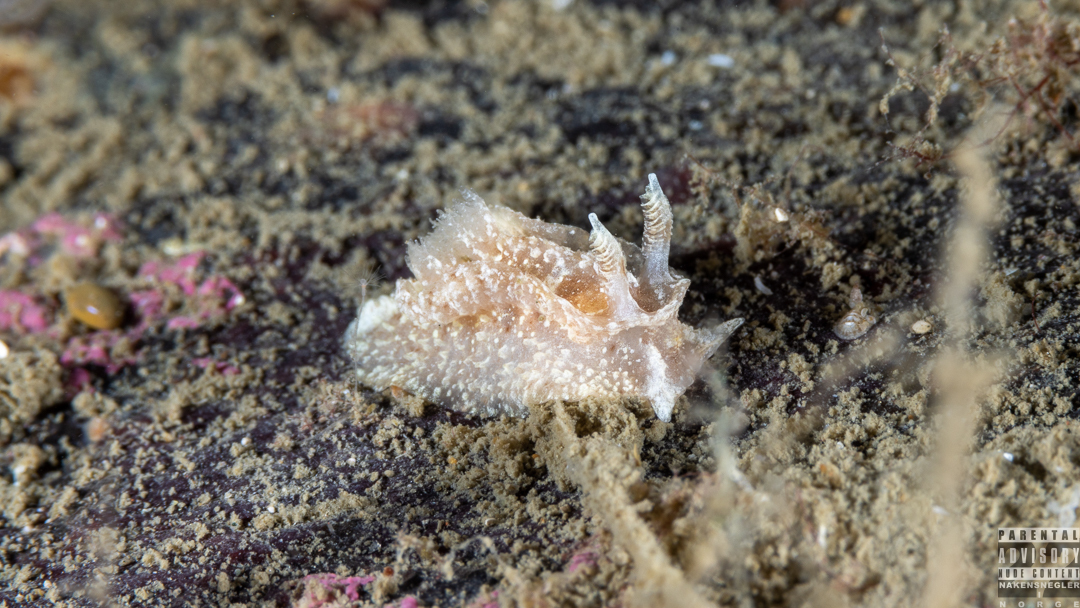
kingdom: Animalia
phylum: Mollusca
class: Gastropoda
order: Nudibranchia
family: Goniodorididae
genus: Pelagella
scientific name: Pelagella castanea
